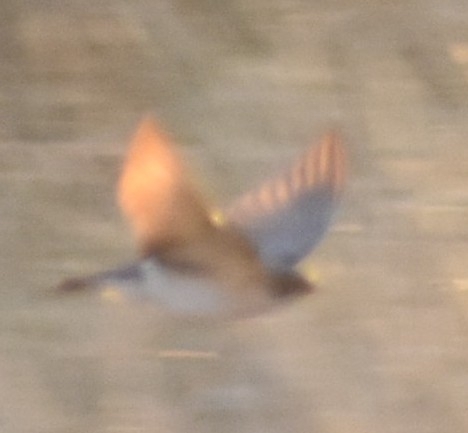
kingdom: Animalia
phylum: Chordata
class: Aves
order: Passeriformes
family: Hirundinidae
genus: Hirundo
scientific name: Hirundo dimidiata
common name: Pearl-breasted swallow
